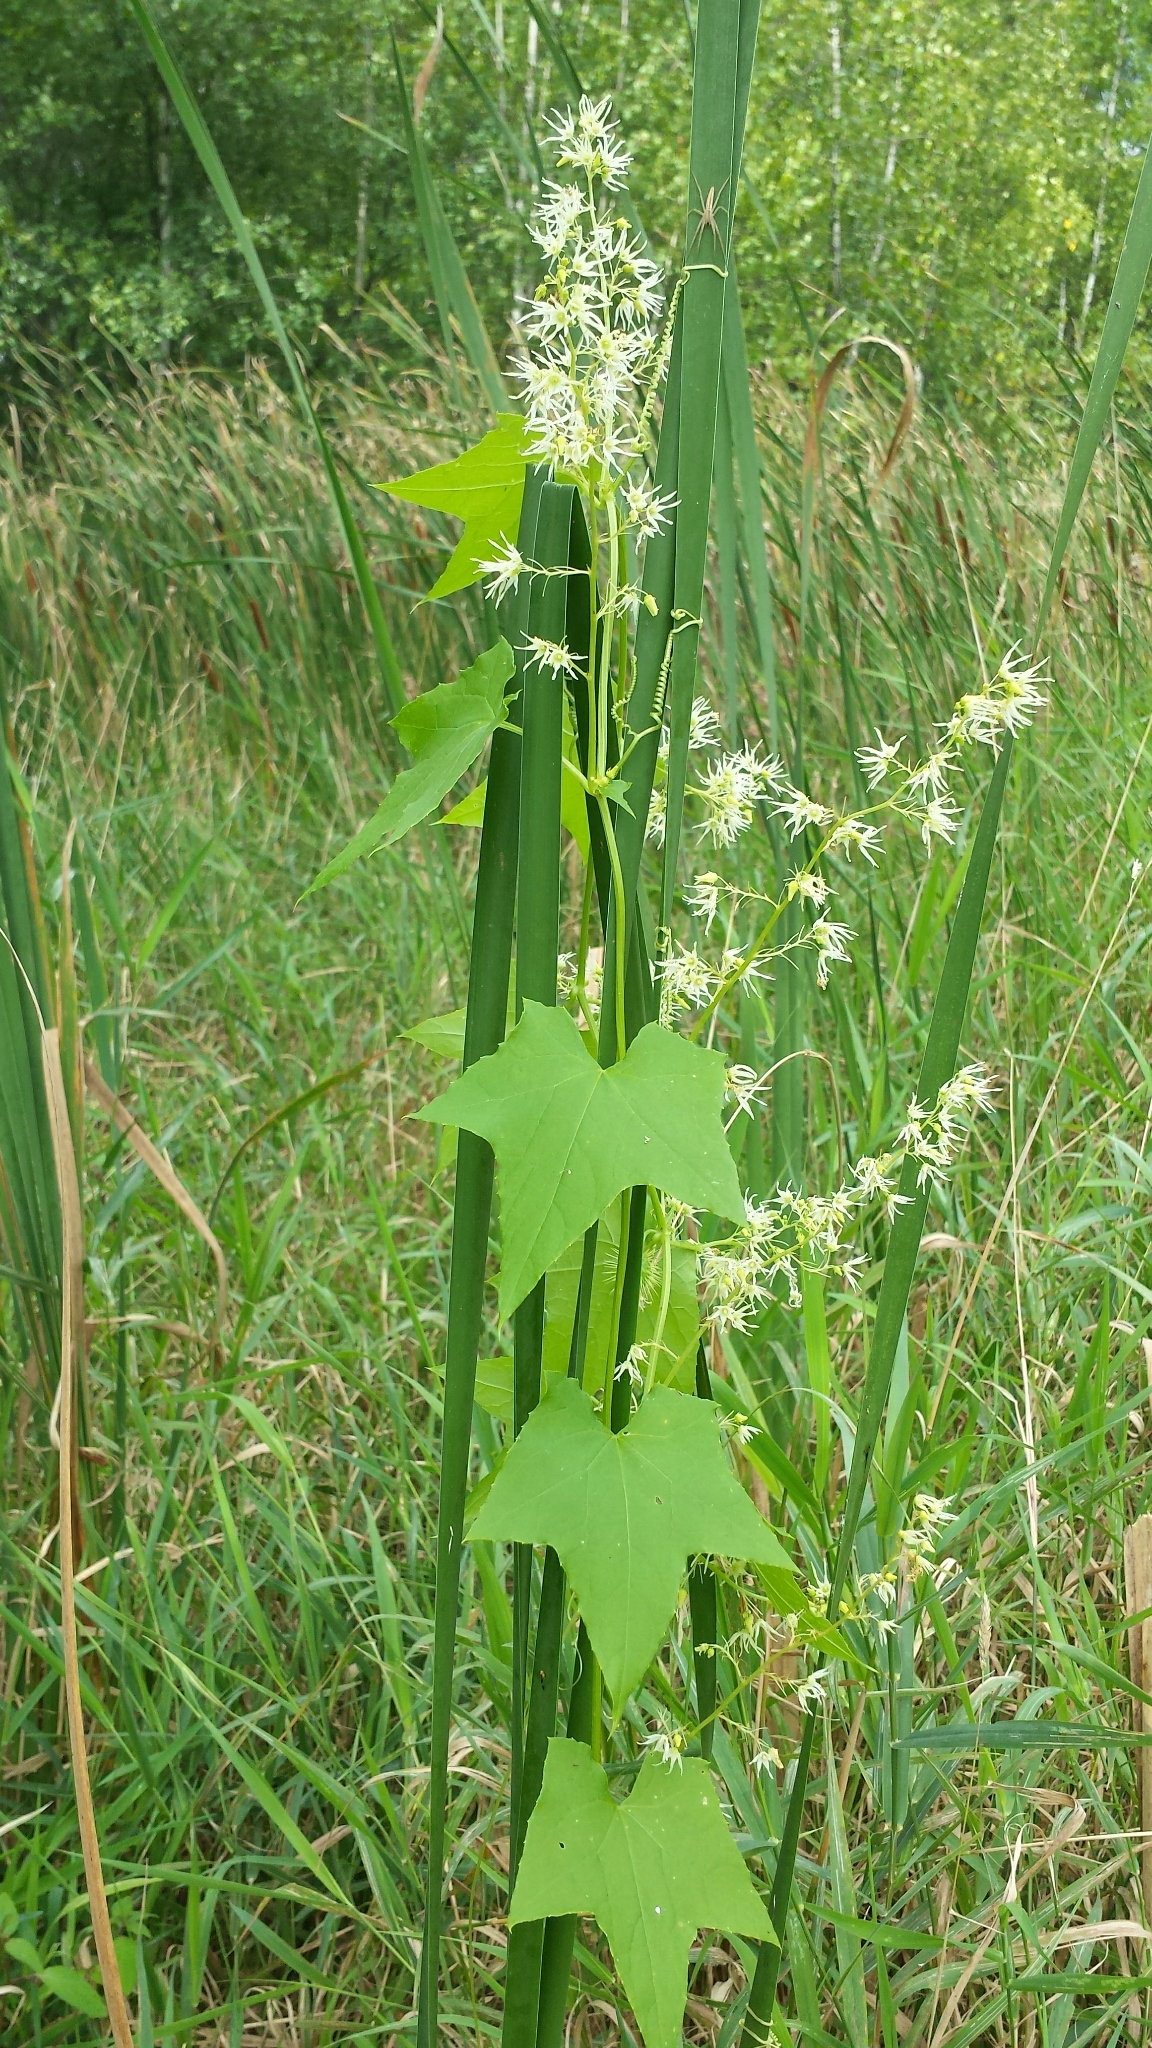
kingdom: Plantae
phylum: Tracheophyta
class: Magnoliopsida
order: Cucurbitales
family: Cucurbitaceae
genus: Echinocystis
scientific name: Echinocystis lobata
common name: Wild cucumber
